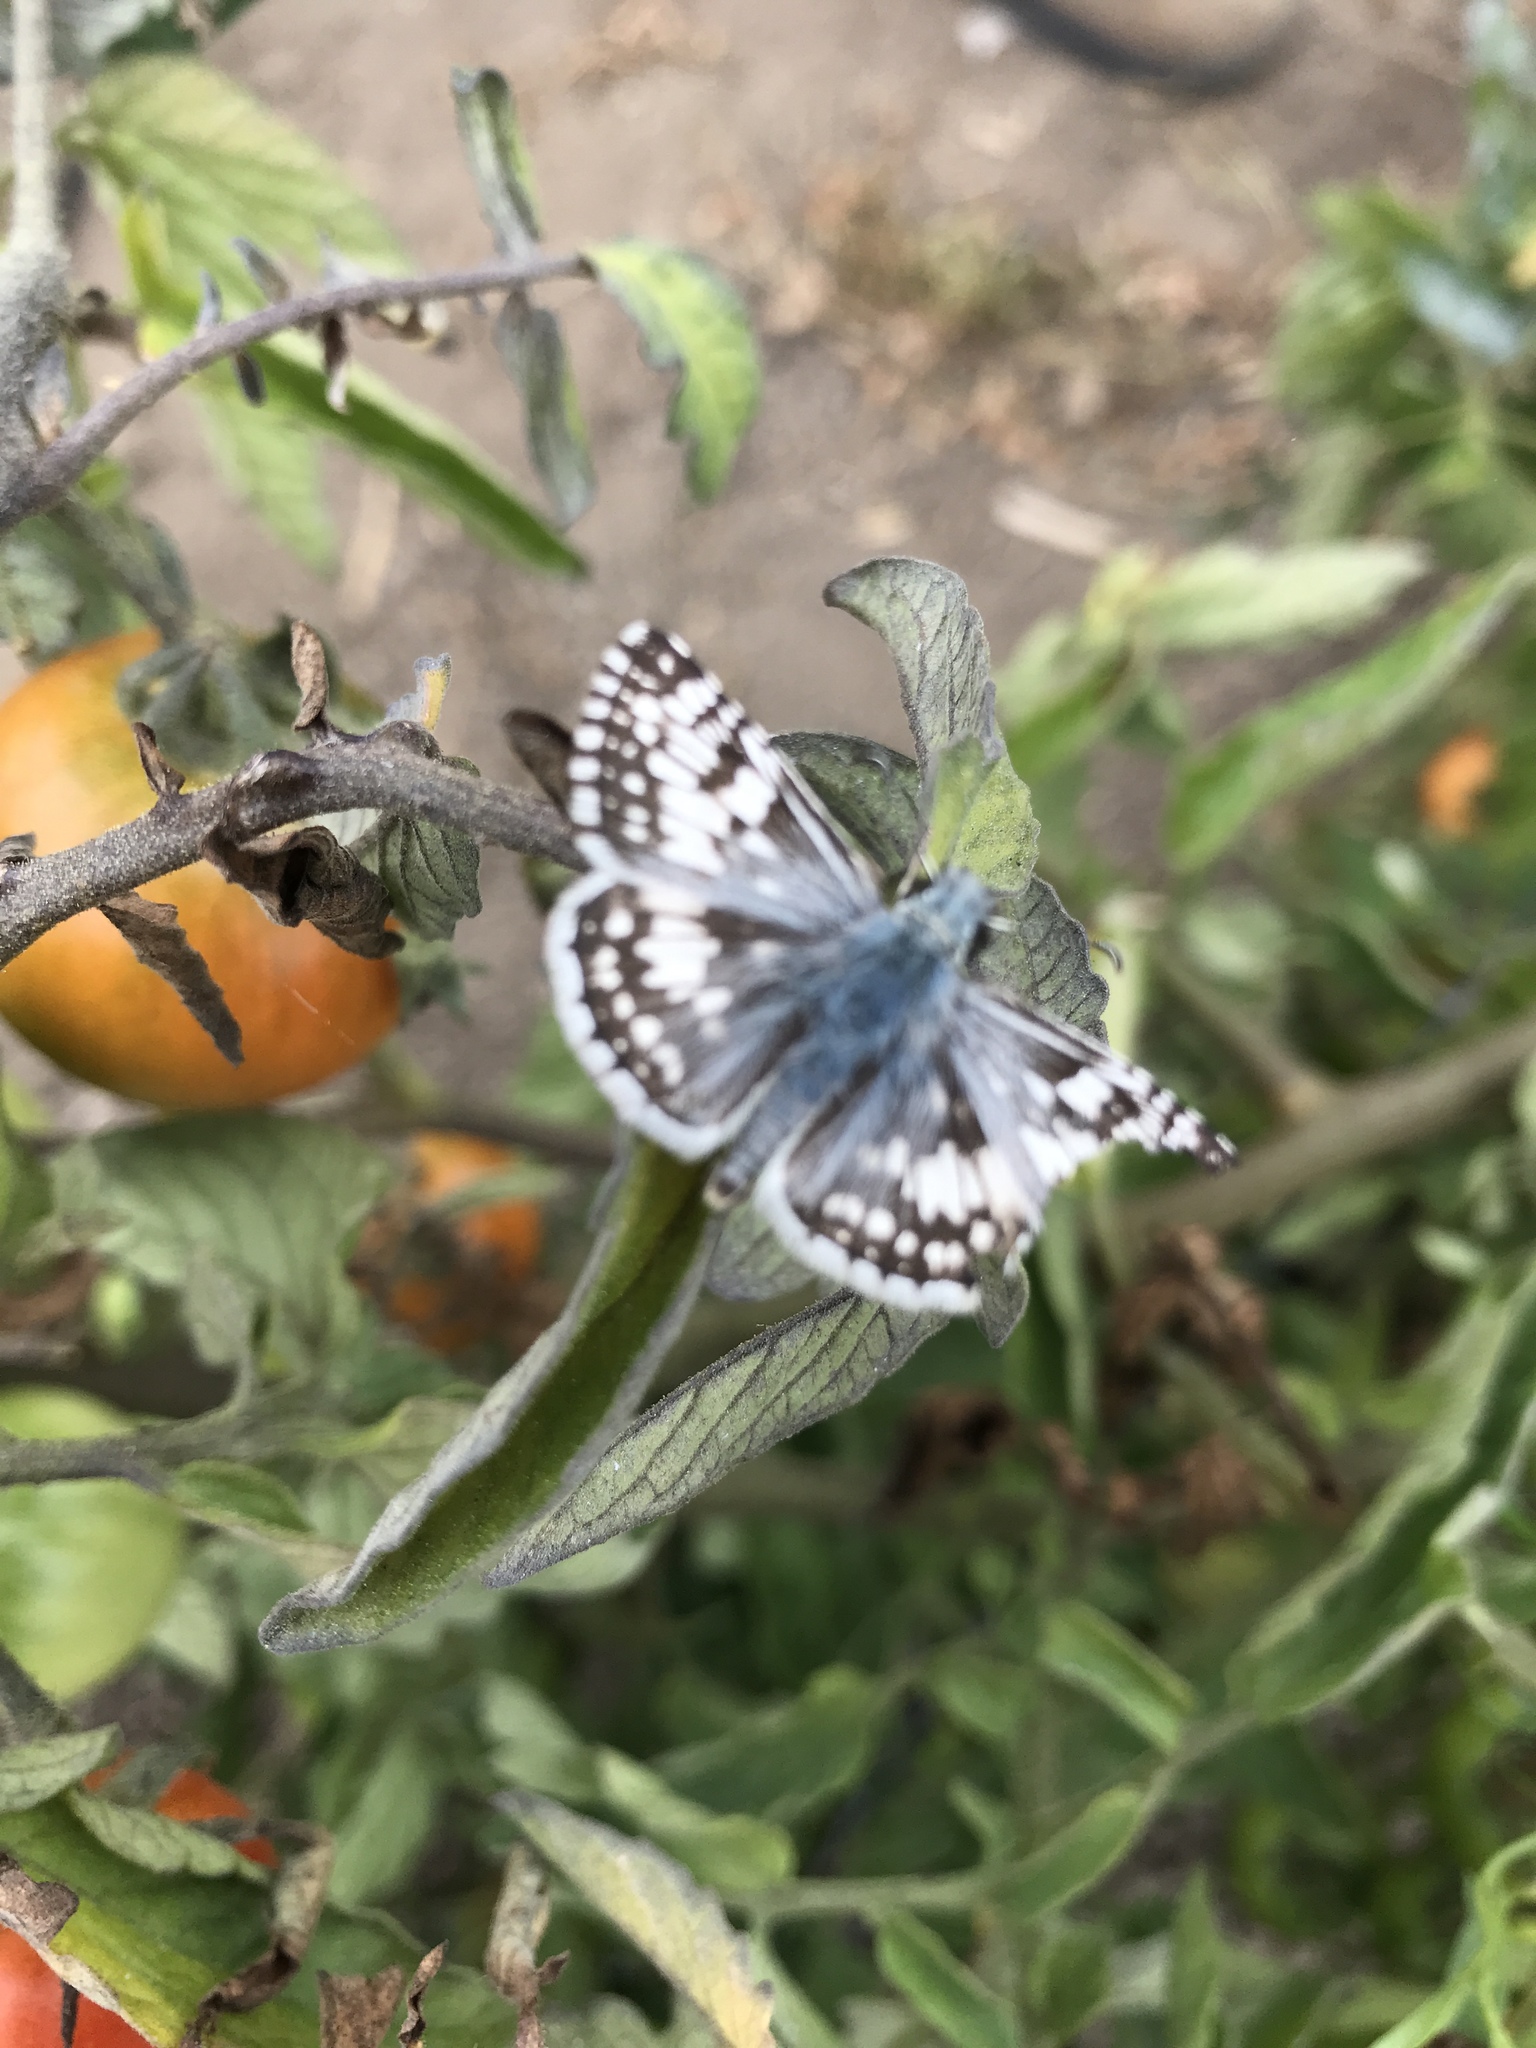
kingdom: Animalia
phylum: Arthropoda
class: Insecta
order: Lepidoptera
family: Hesperiidae
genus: Burnsius
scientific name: Burnsius communis
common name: Common checkered-skipper
